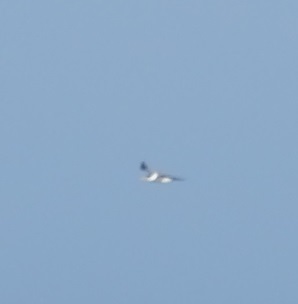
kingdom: Animalia
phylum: Chordata
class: Aves
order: Charadriiformes
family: Laridae
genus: Thalasseus
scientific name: Thalasseus bergii
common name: Greater crested tern
